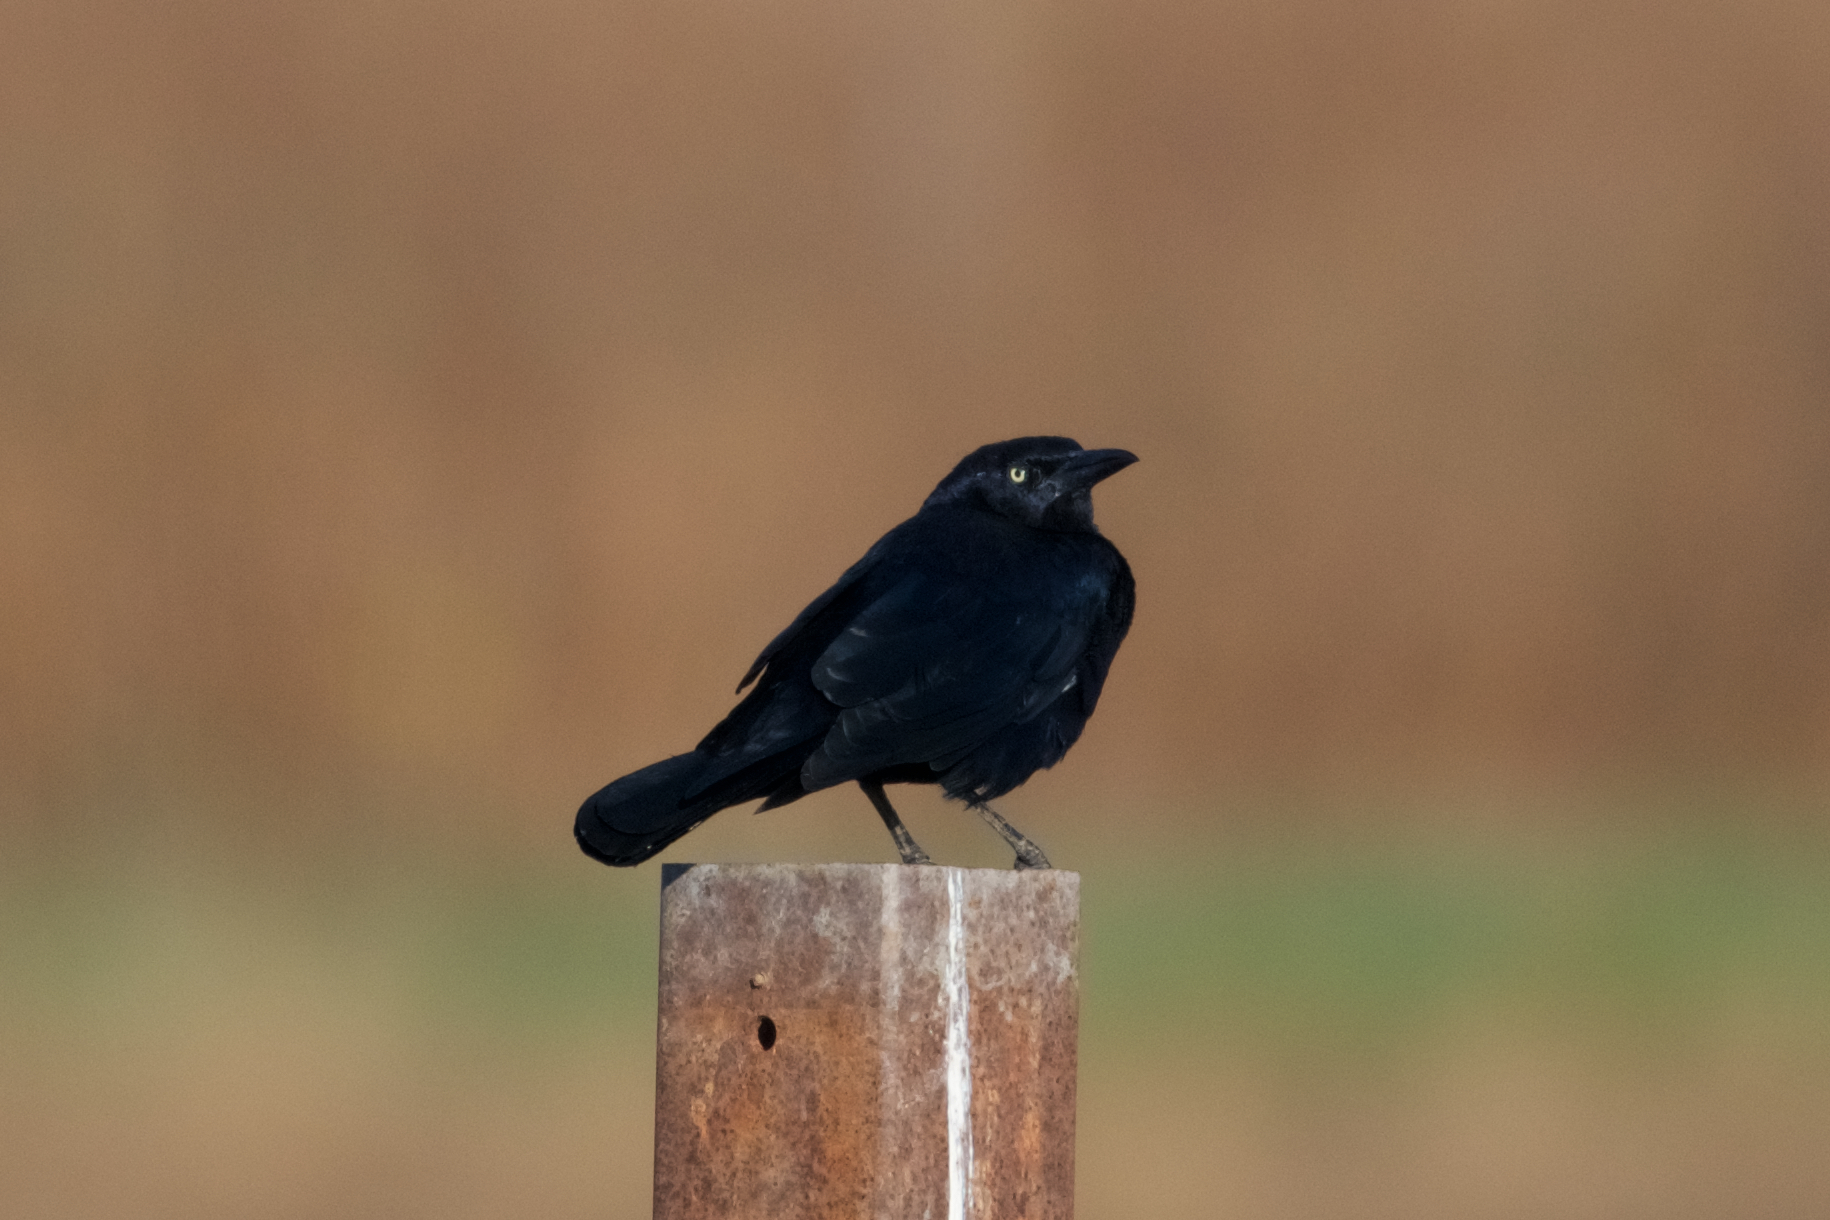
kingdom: Animalia
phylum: Chordata
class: Aves
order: Passeriformes
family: Icteridae
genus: Euphagus
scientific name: Euphagus cyanocephalus
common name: Brewer's blackbird
